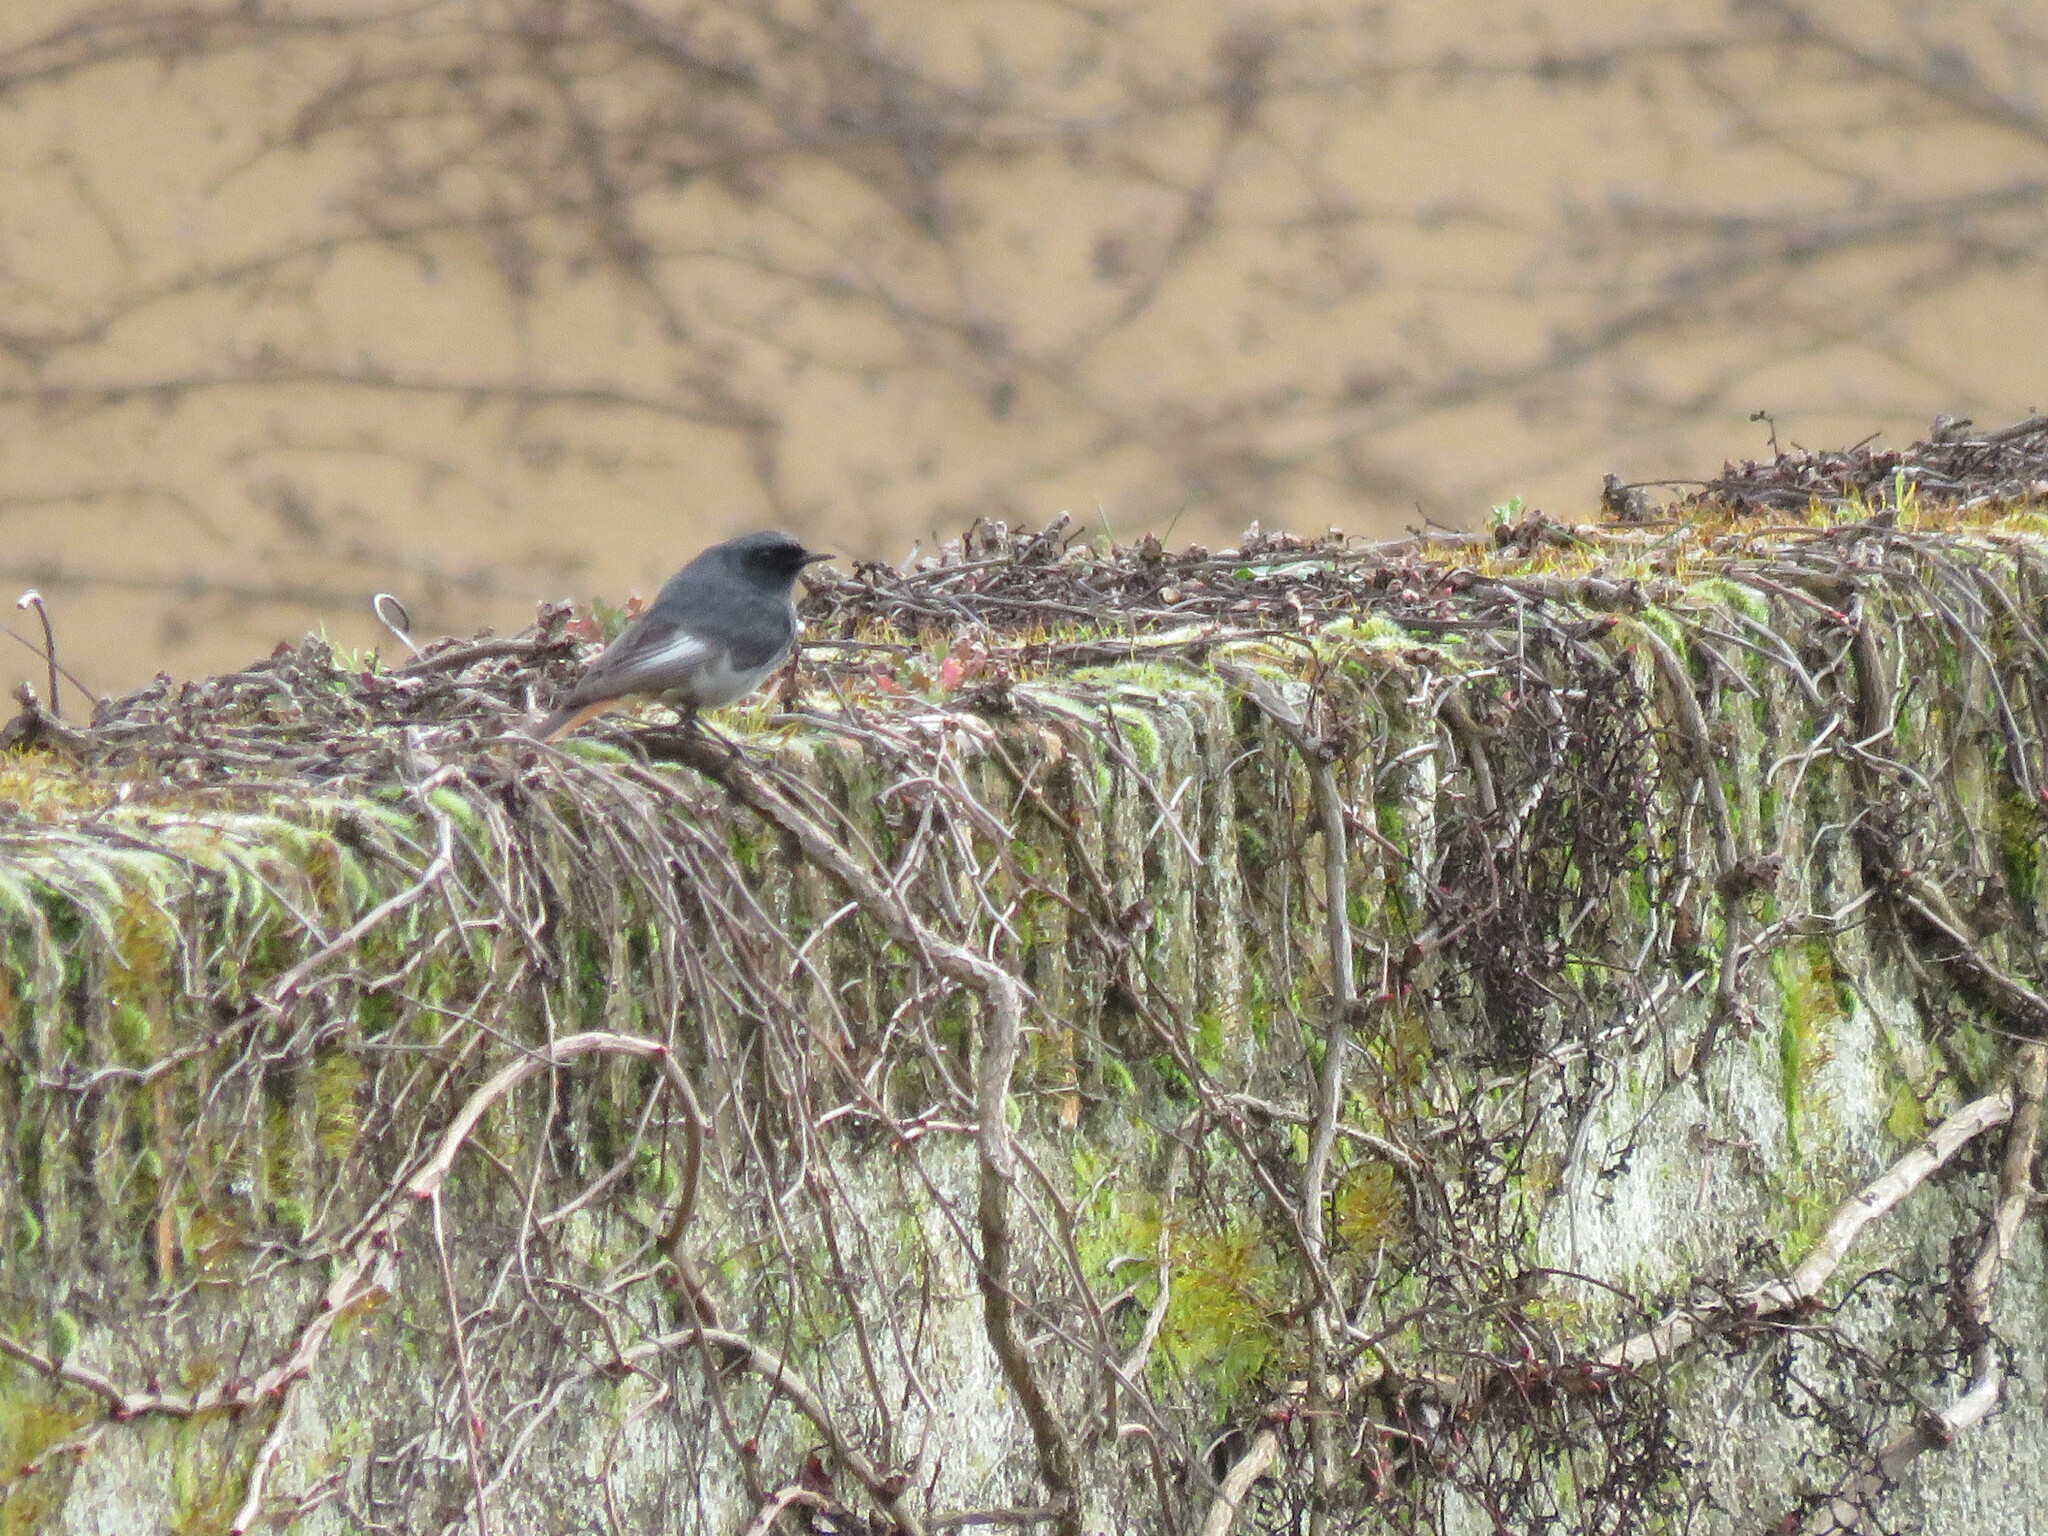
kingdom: Animalia
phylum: Chordata
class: Aves
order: Passeriformes
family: Muscicapidae
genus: Phoenicurus
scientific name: Phoenicurus ochruros
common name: Black redstart
